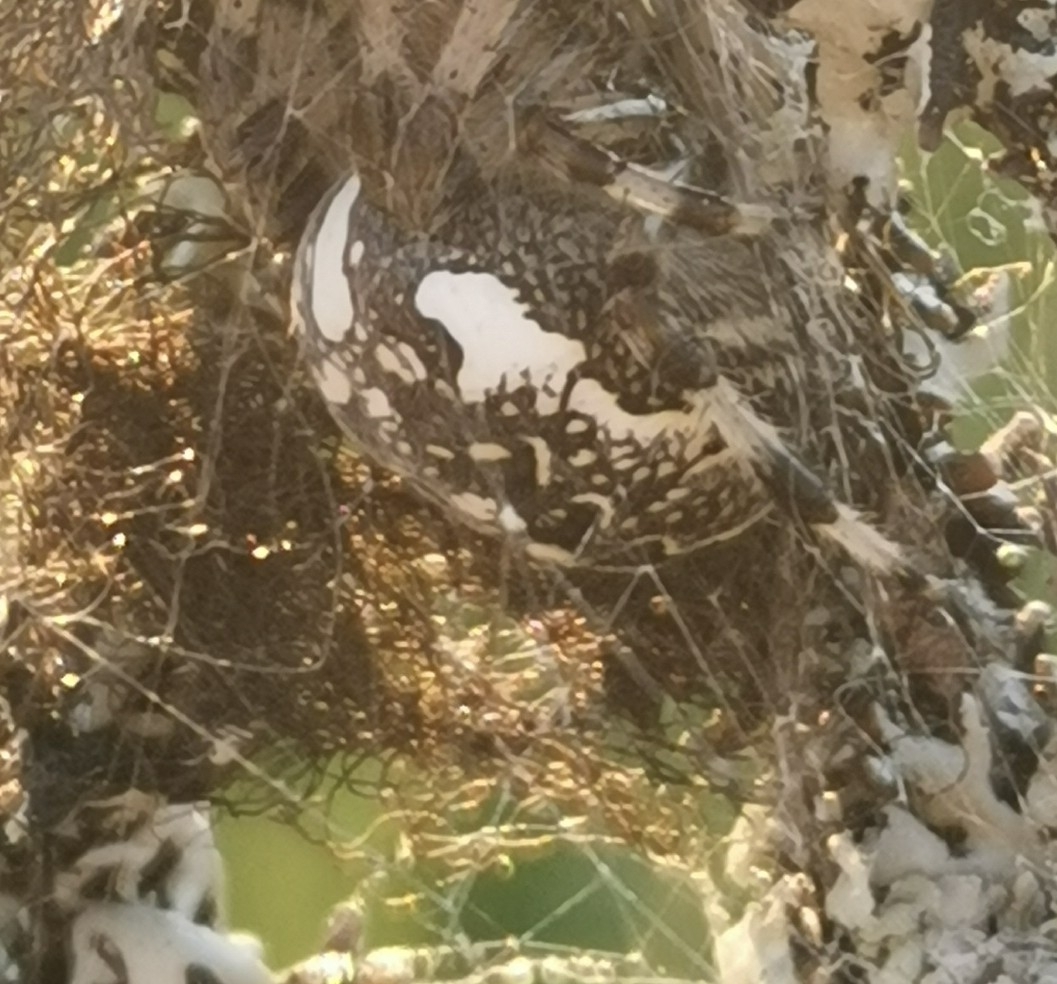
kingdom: Animalia
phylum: Arthropoda
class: Arachnida
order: Araneae
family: Araneidae
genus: Araneus
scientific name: Araneus marmoreus
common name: Marbled orbweaver
